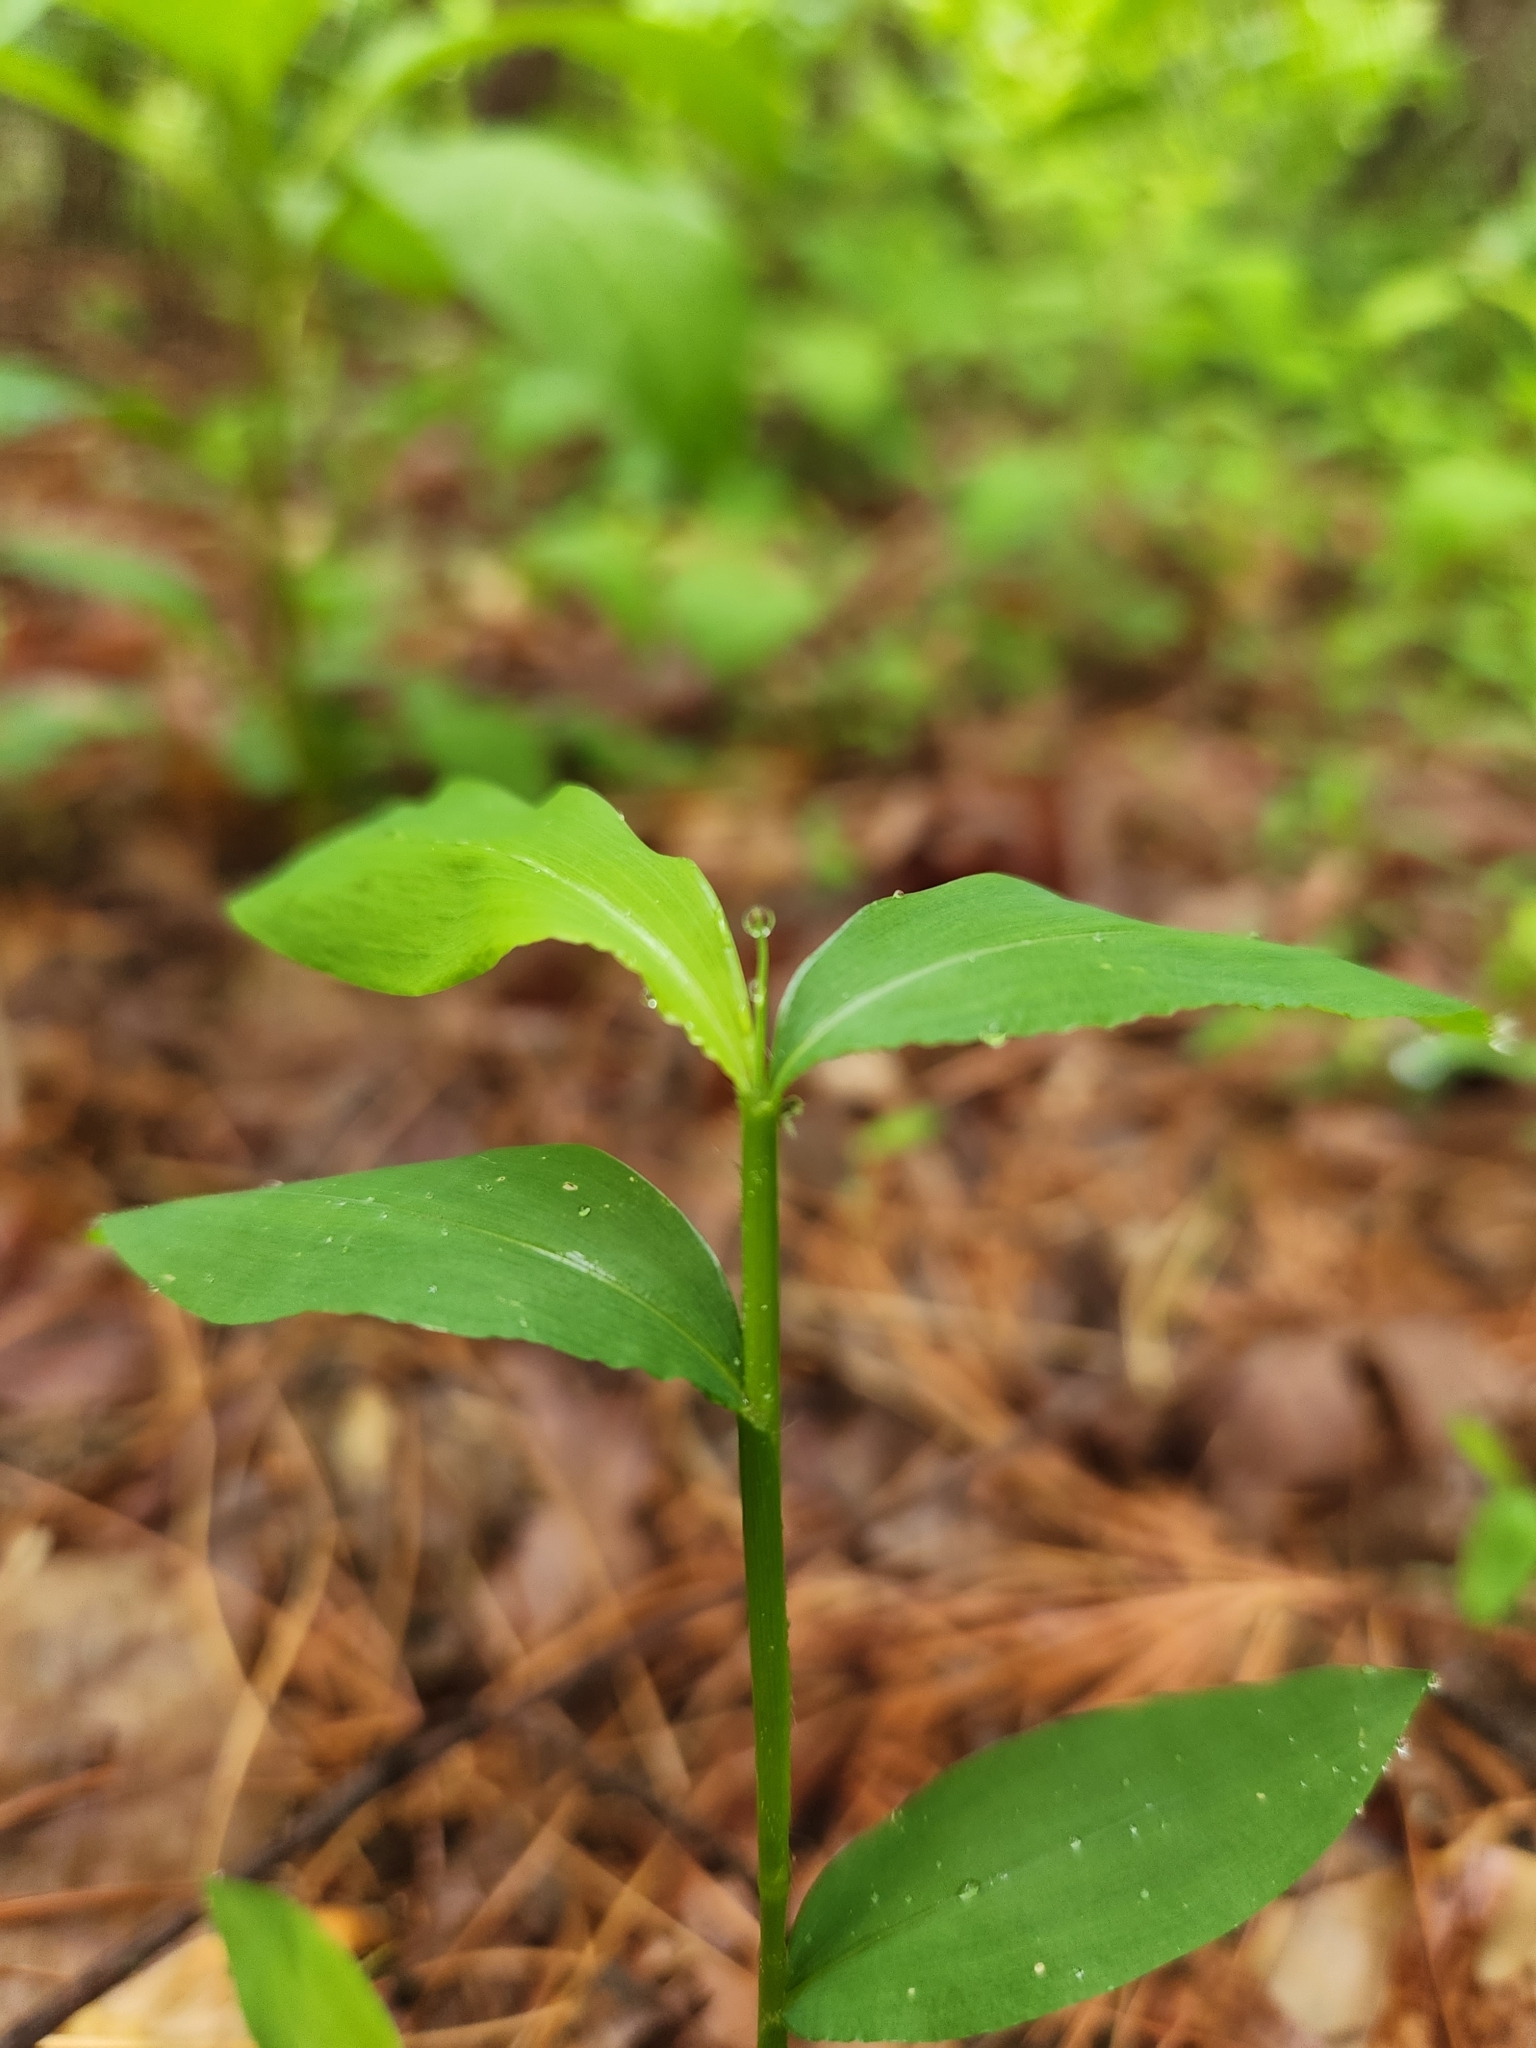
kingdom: Plantae
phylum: Tracheophyta
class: Liliopsida
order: Poales
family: Poaceae
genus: Microstegium
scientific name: Microstegium vimineum
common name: Japanese stiltgrass
